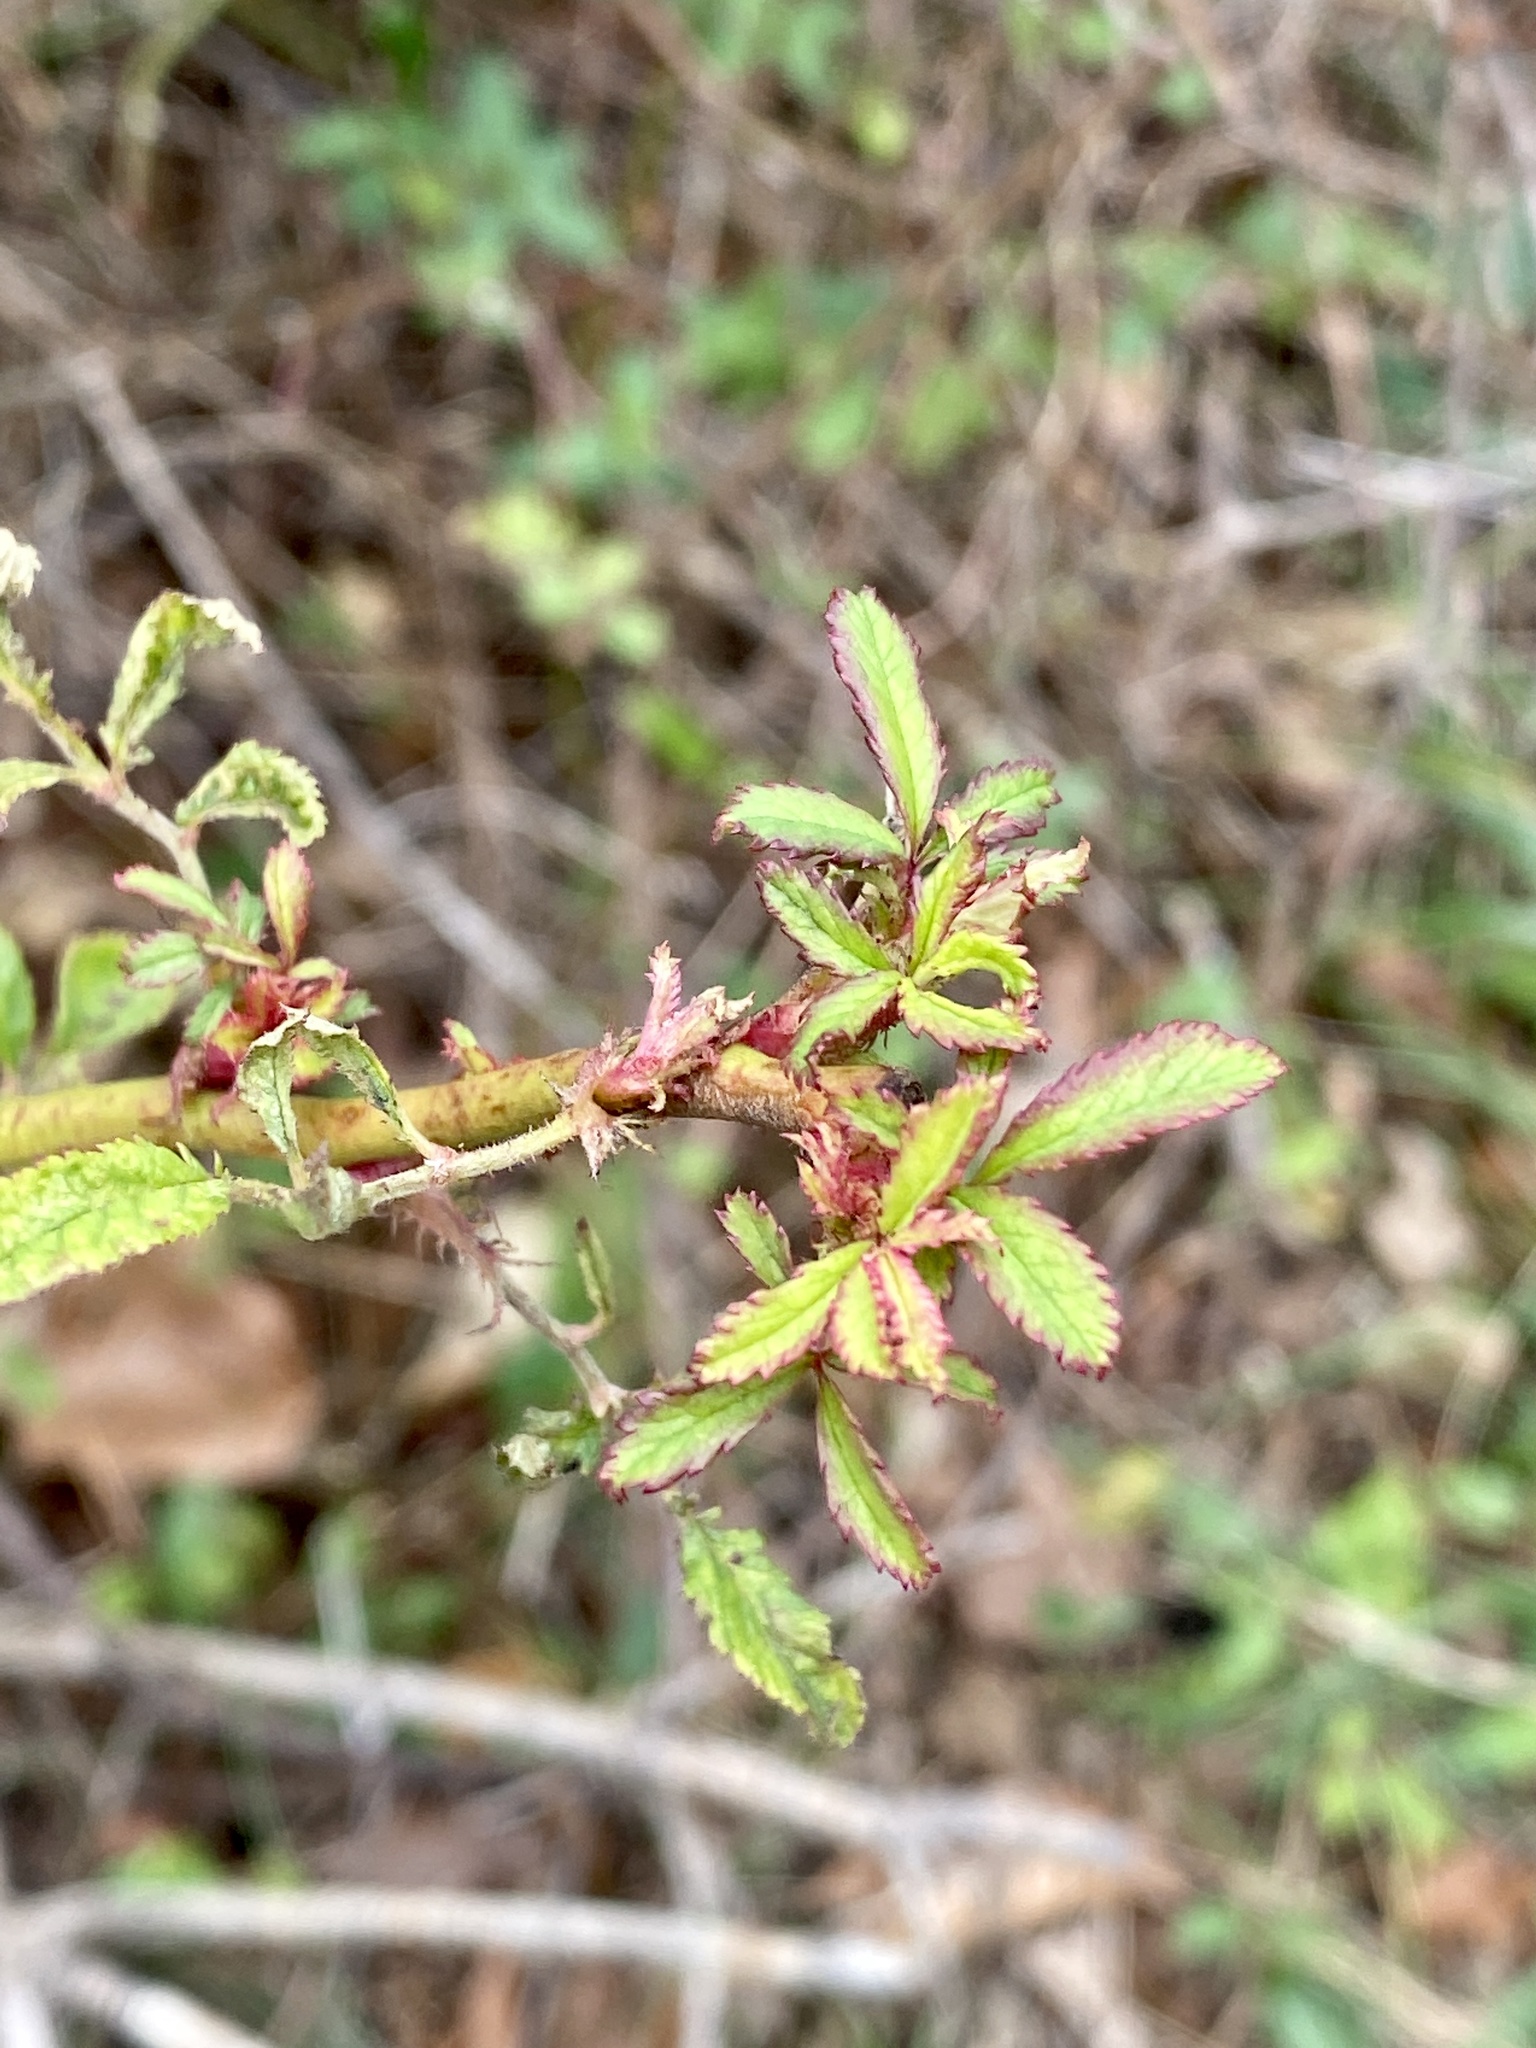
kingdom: Viruses
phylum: Negarnaviricota
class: Ellioviricetes
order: Bunyavirales
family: Fimoviridae
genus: Emaravirus
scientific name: Emaravirus rosae
